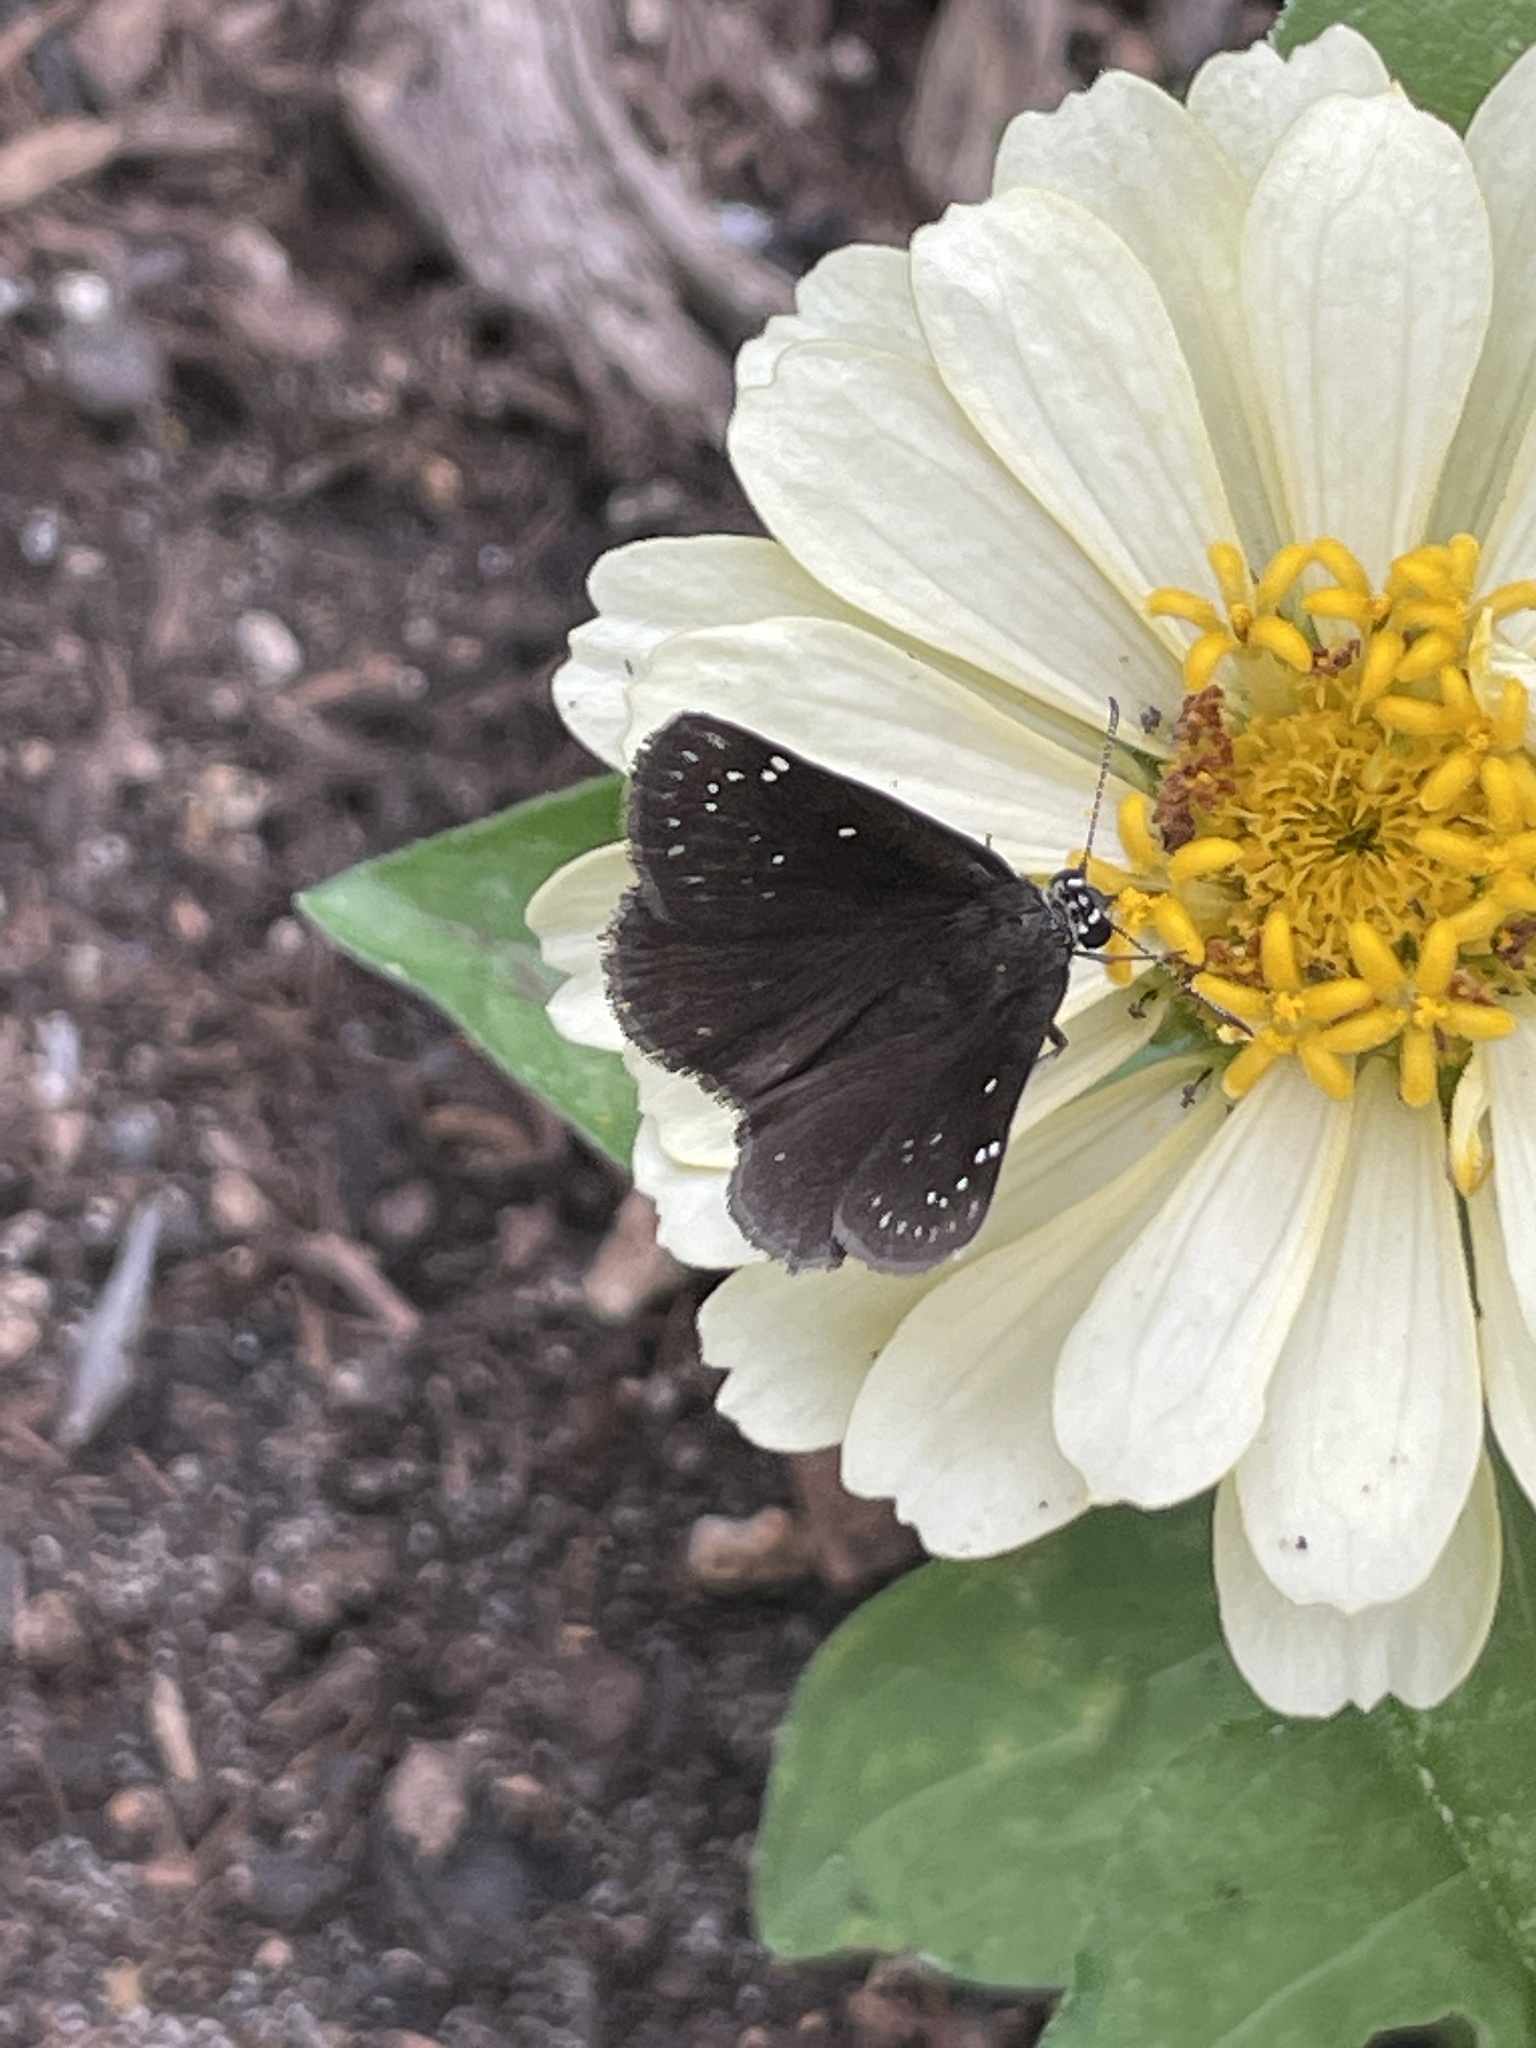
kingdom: Animalia
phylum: Arthropoda
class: Insecta
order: Lepidoptera
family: Hesperiidae
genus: Pholisora
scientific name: Pholisora catullus
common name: Common sootywing
